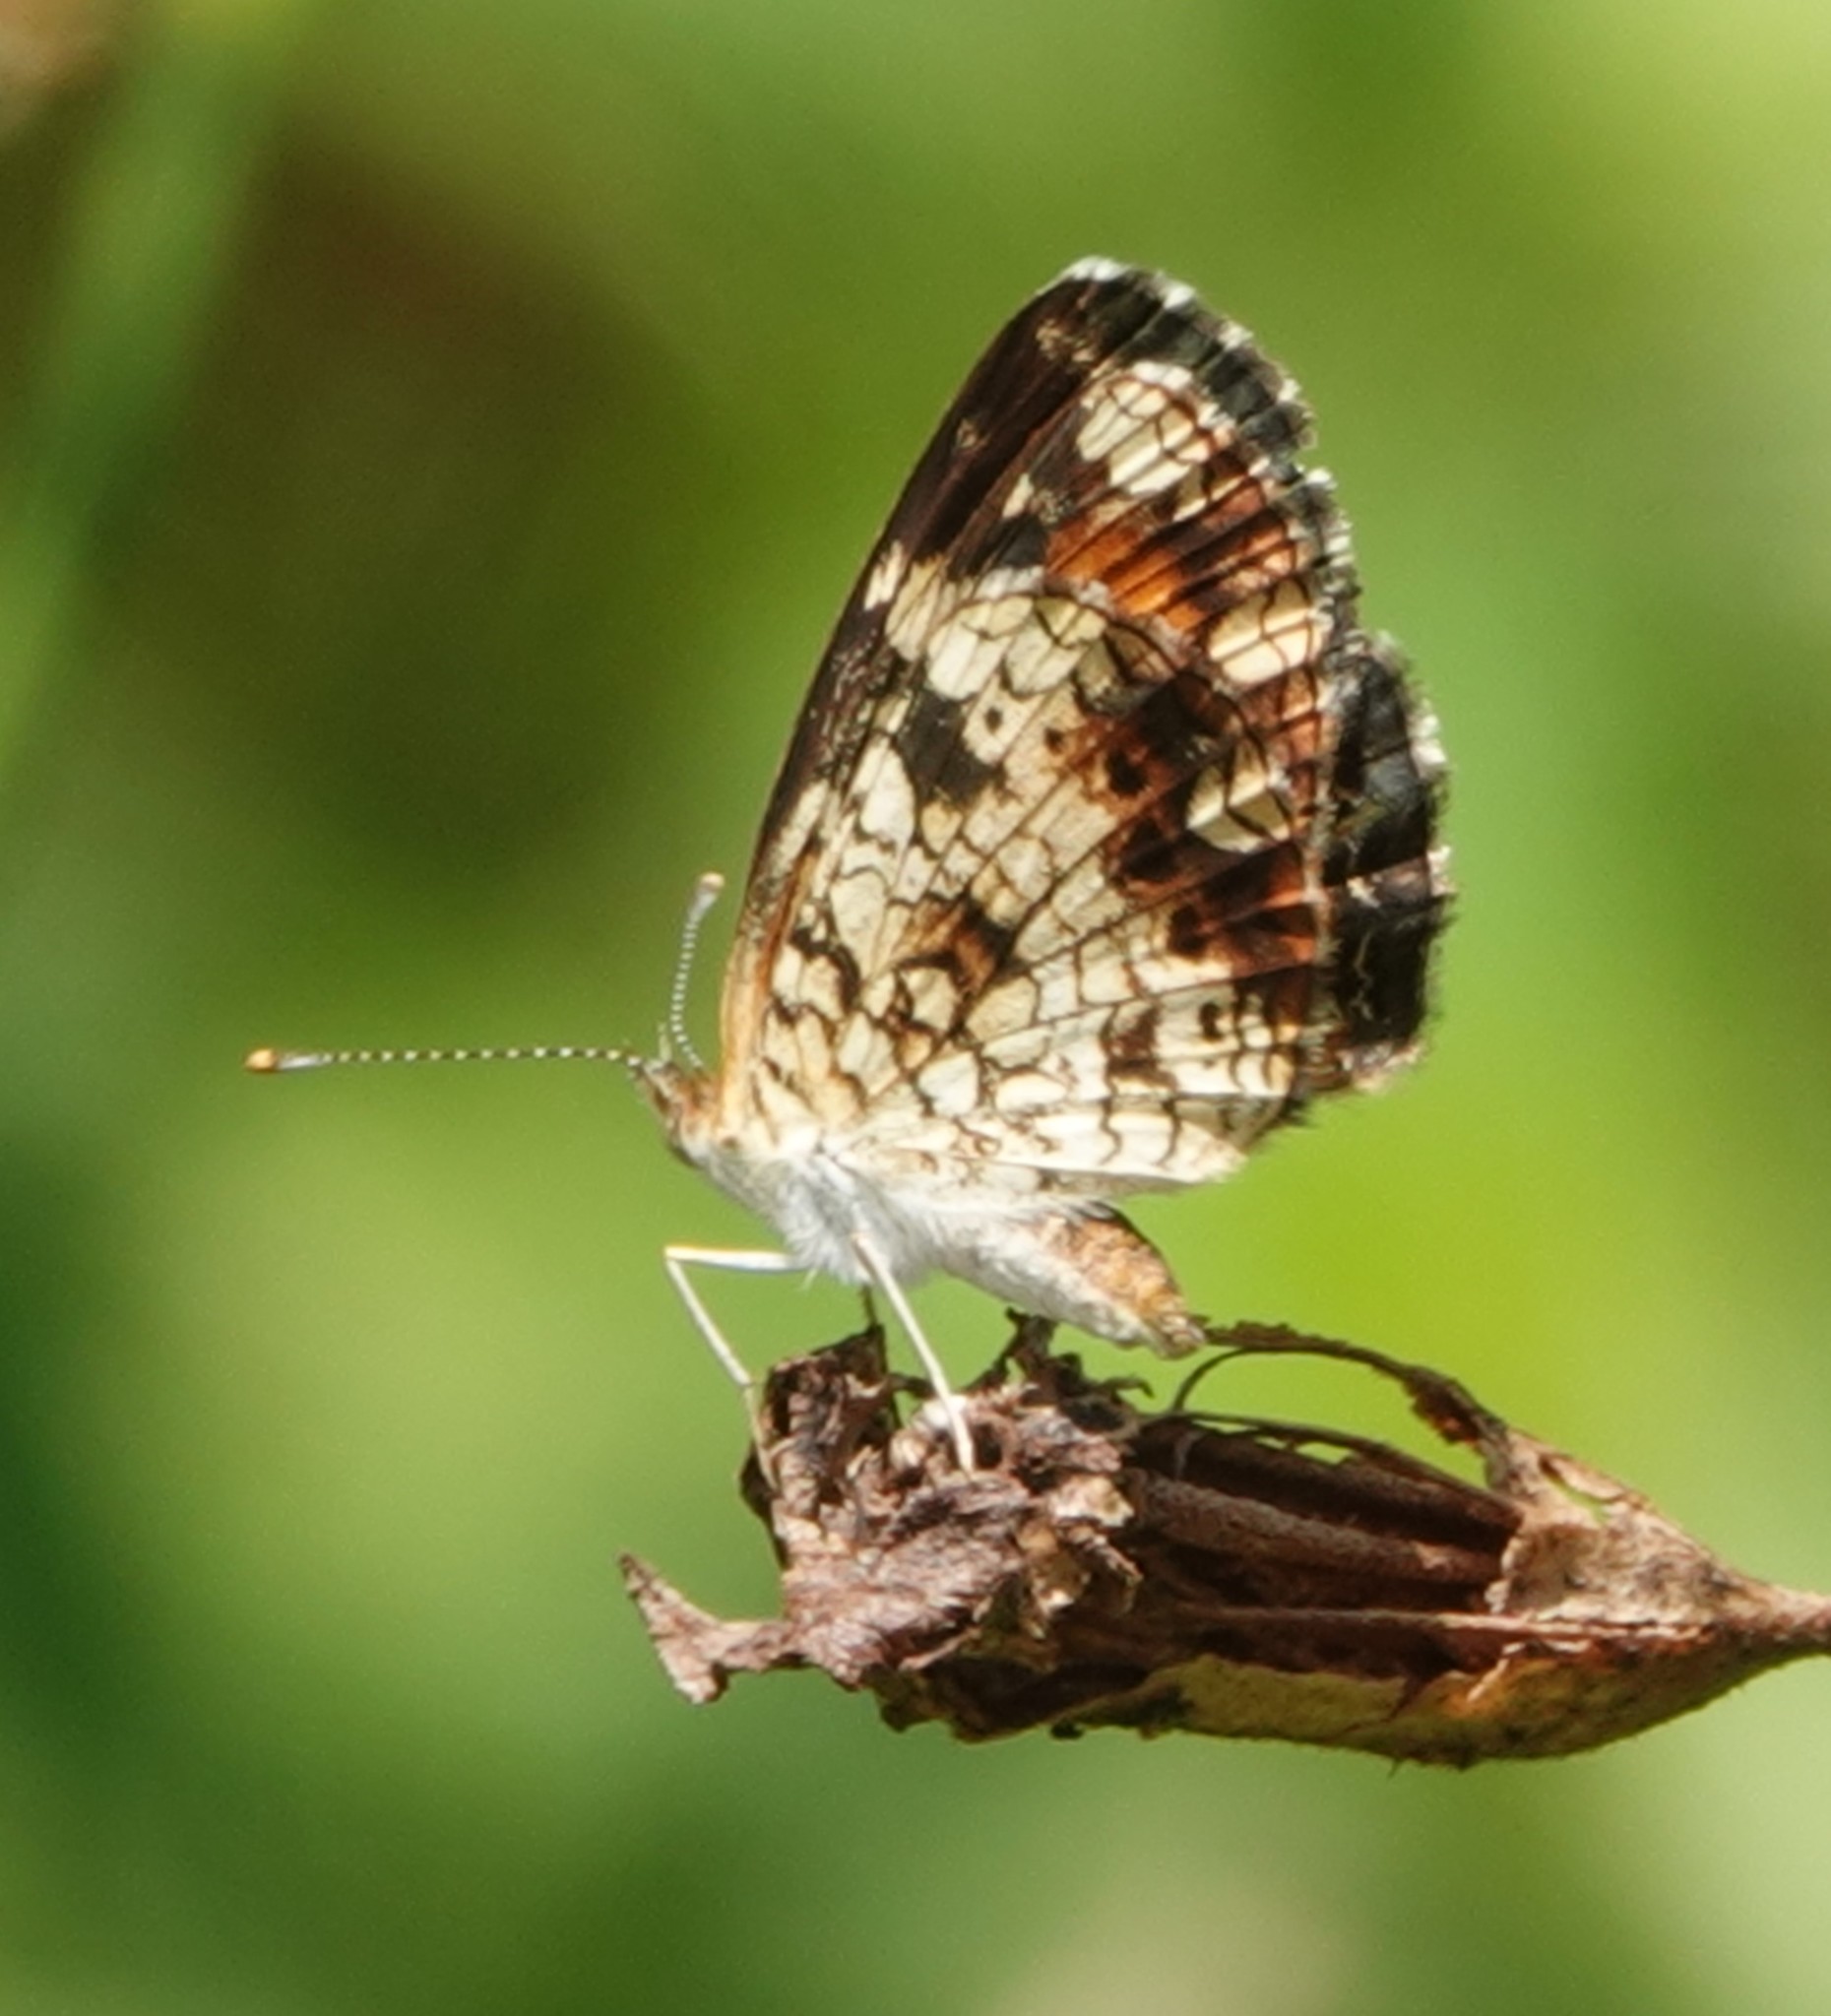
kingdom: Animalia
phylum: Arthropoda
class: Insecta
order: Lepidoptera
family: Nymphalidae
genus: Phyciodes
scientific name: Phyciodes phaon
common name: Phaon crescent
